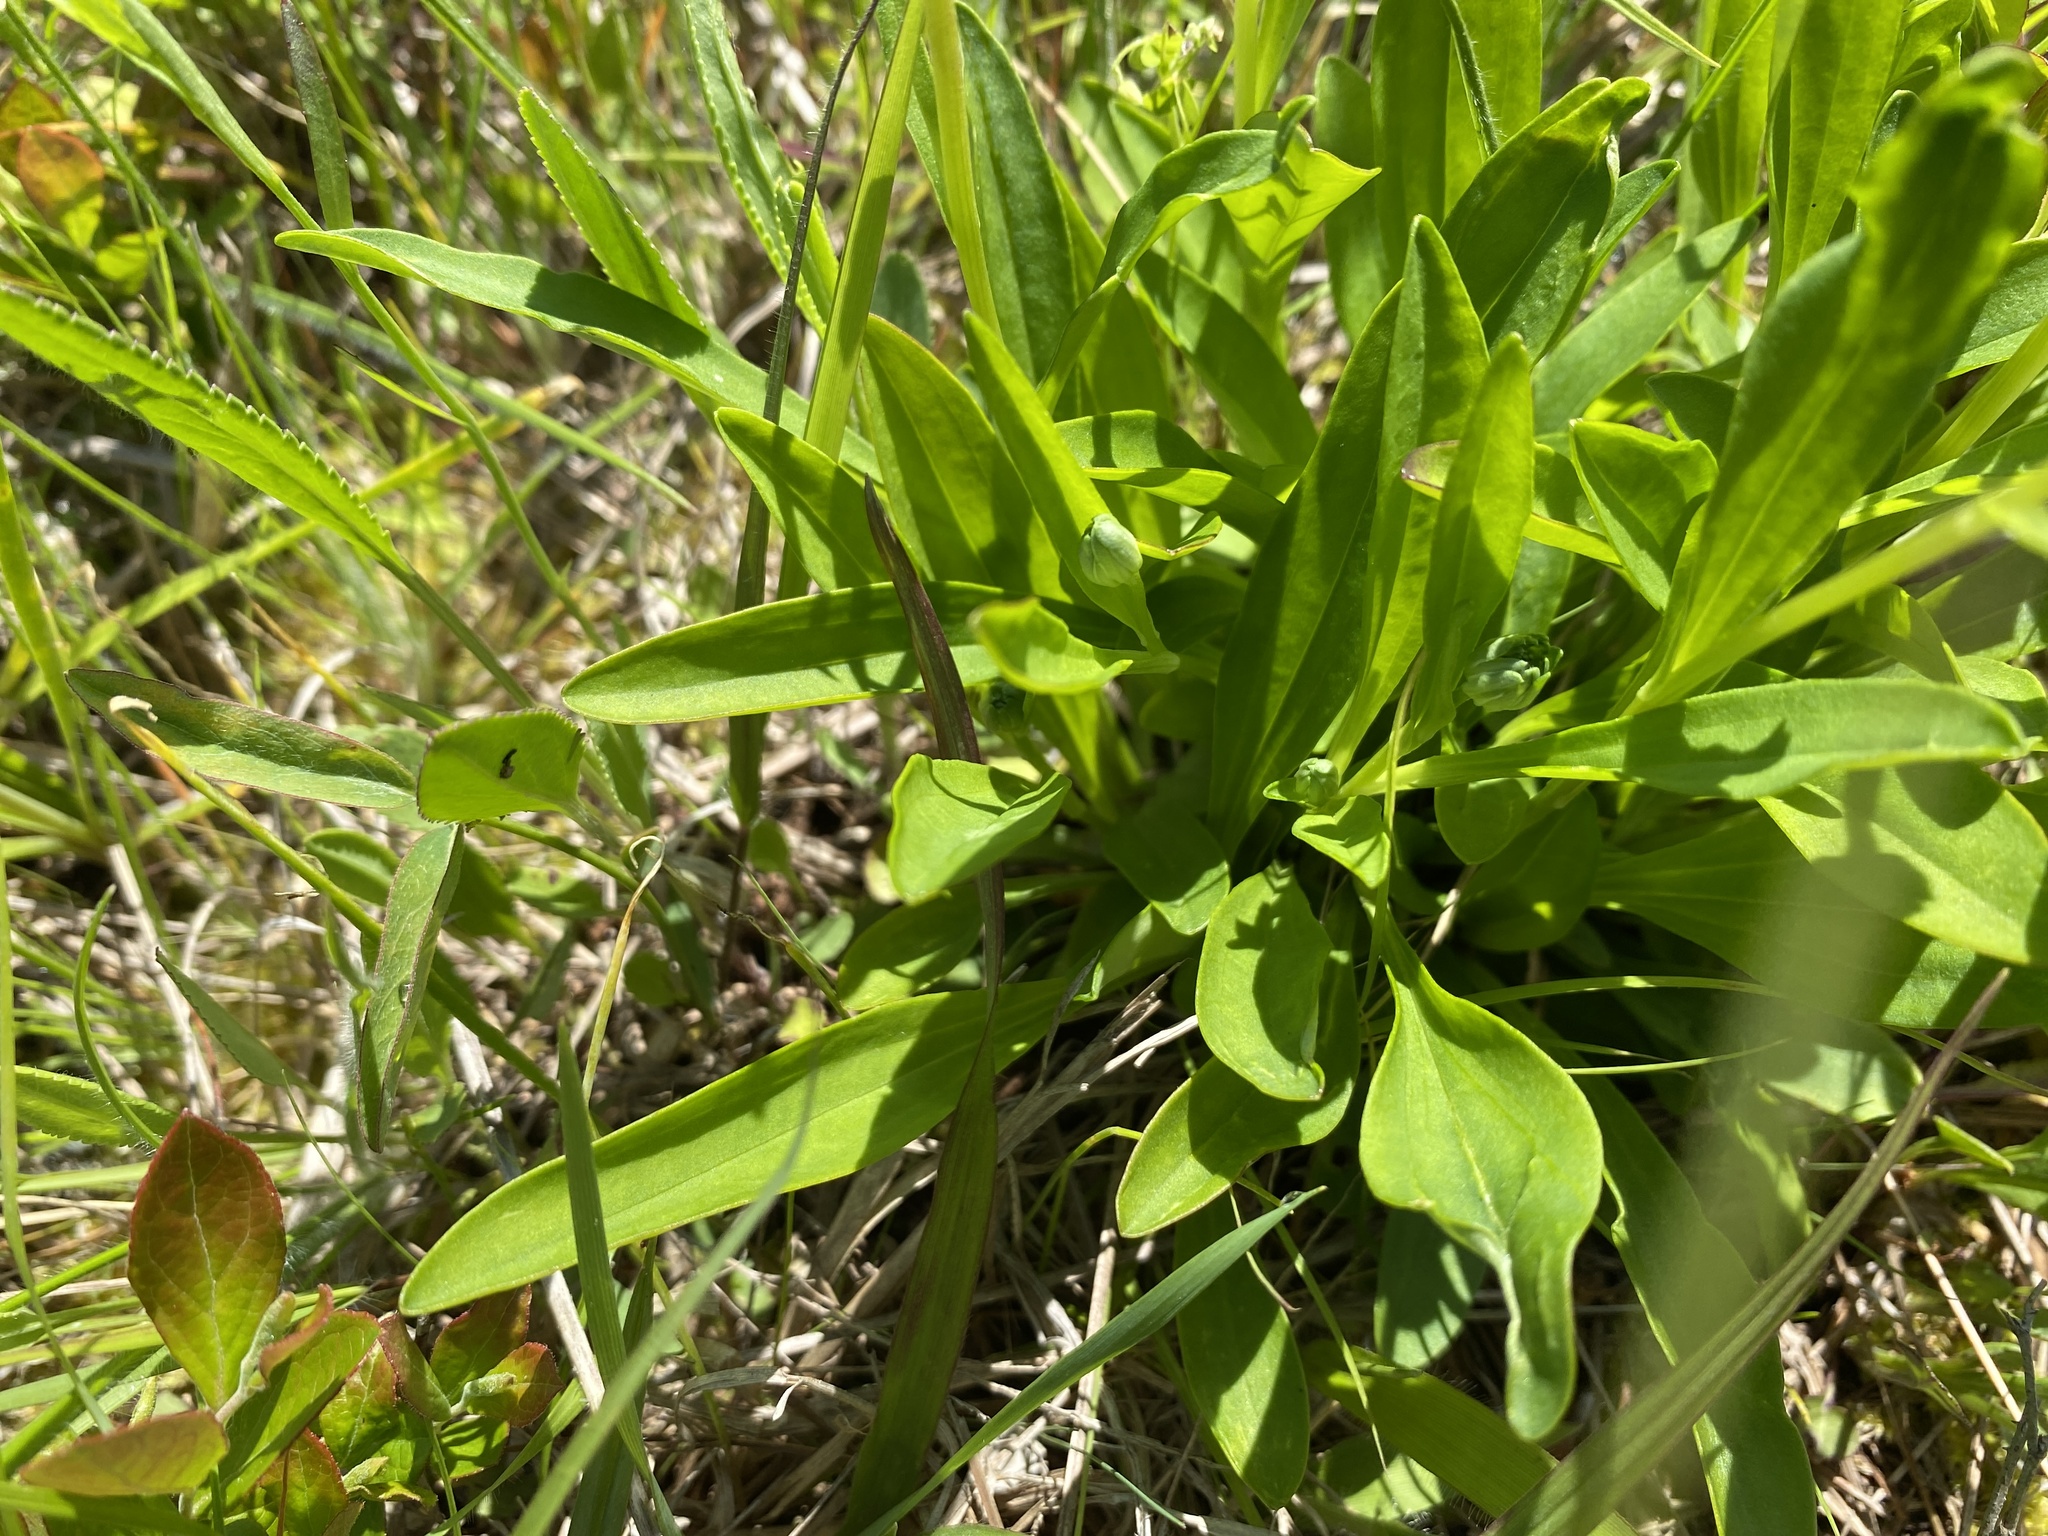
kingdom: Plantae
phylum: Tracheophyta
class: Magnoliopsida
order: Asterales
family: Asteraceae
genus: Marshallia
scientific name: Marshallia obovata
